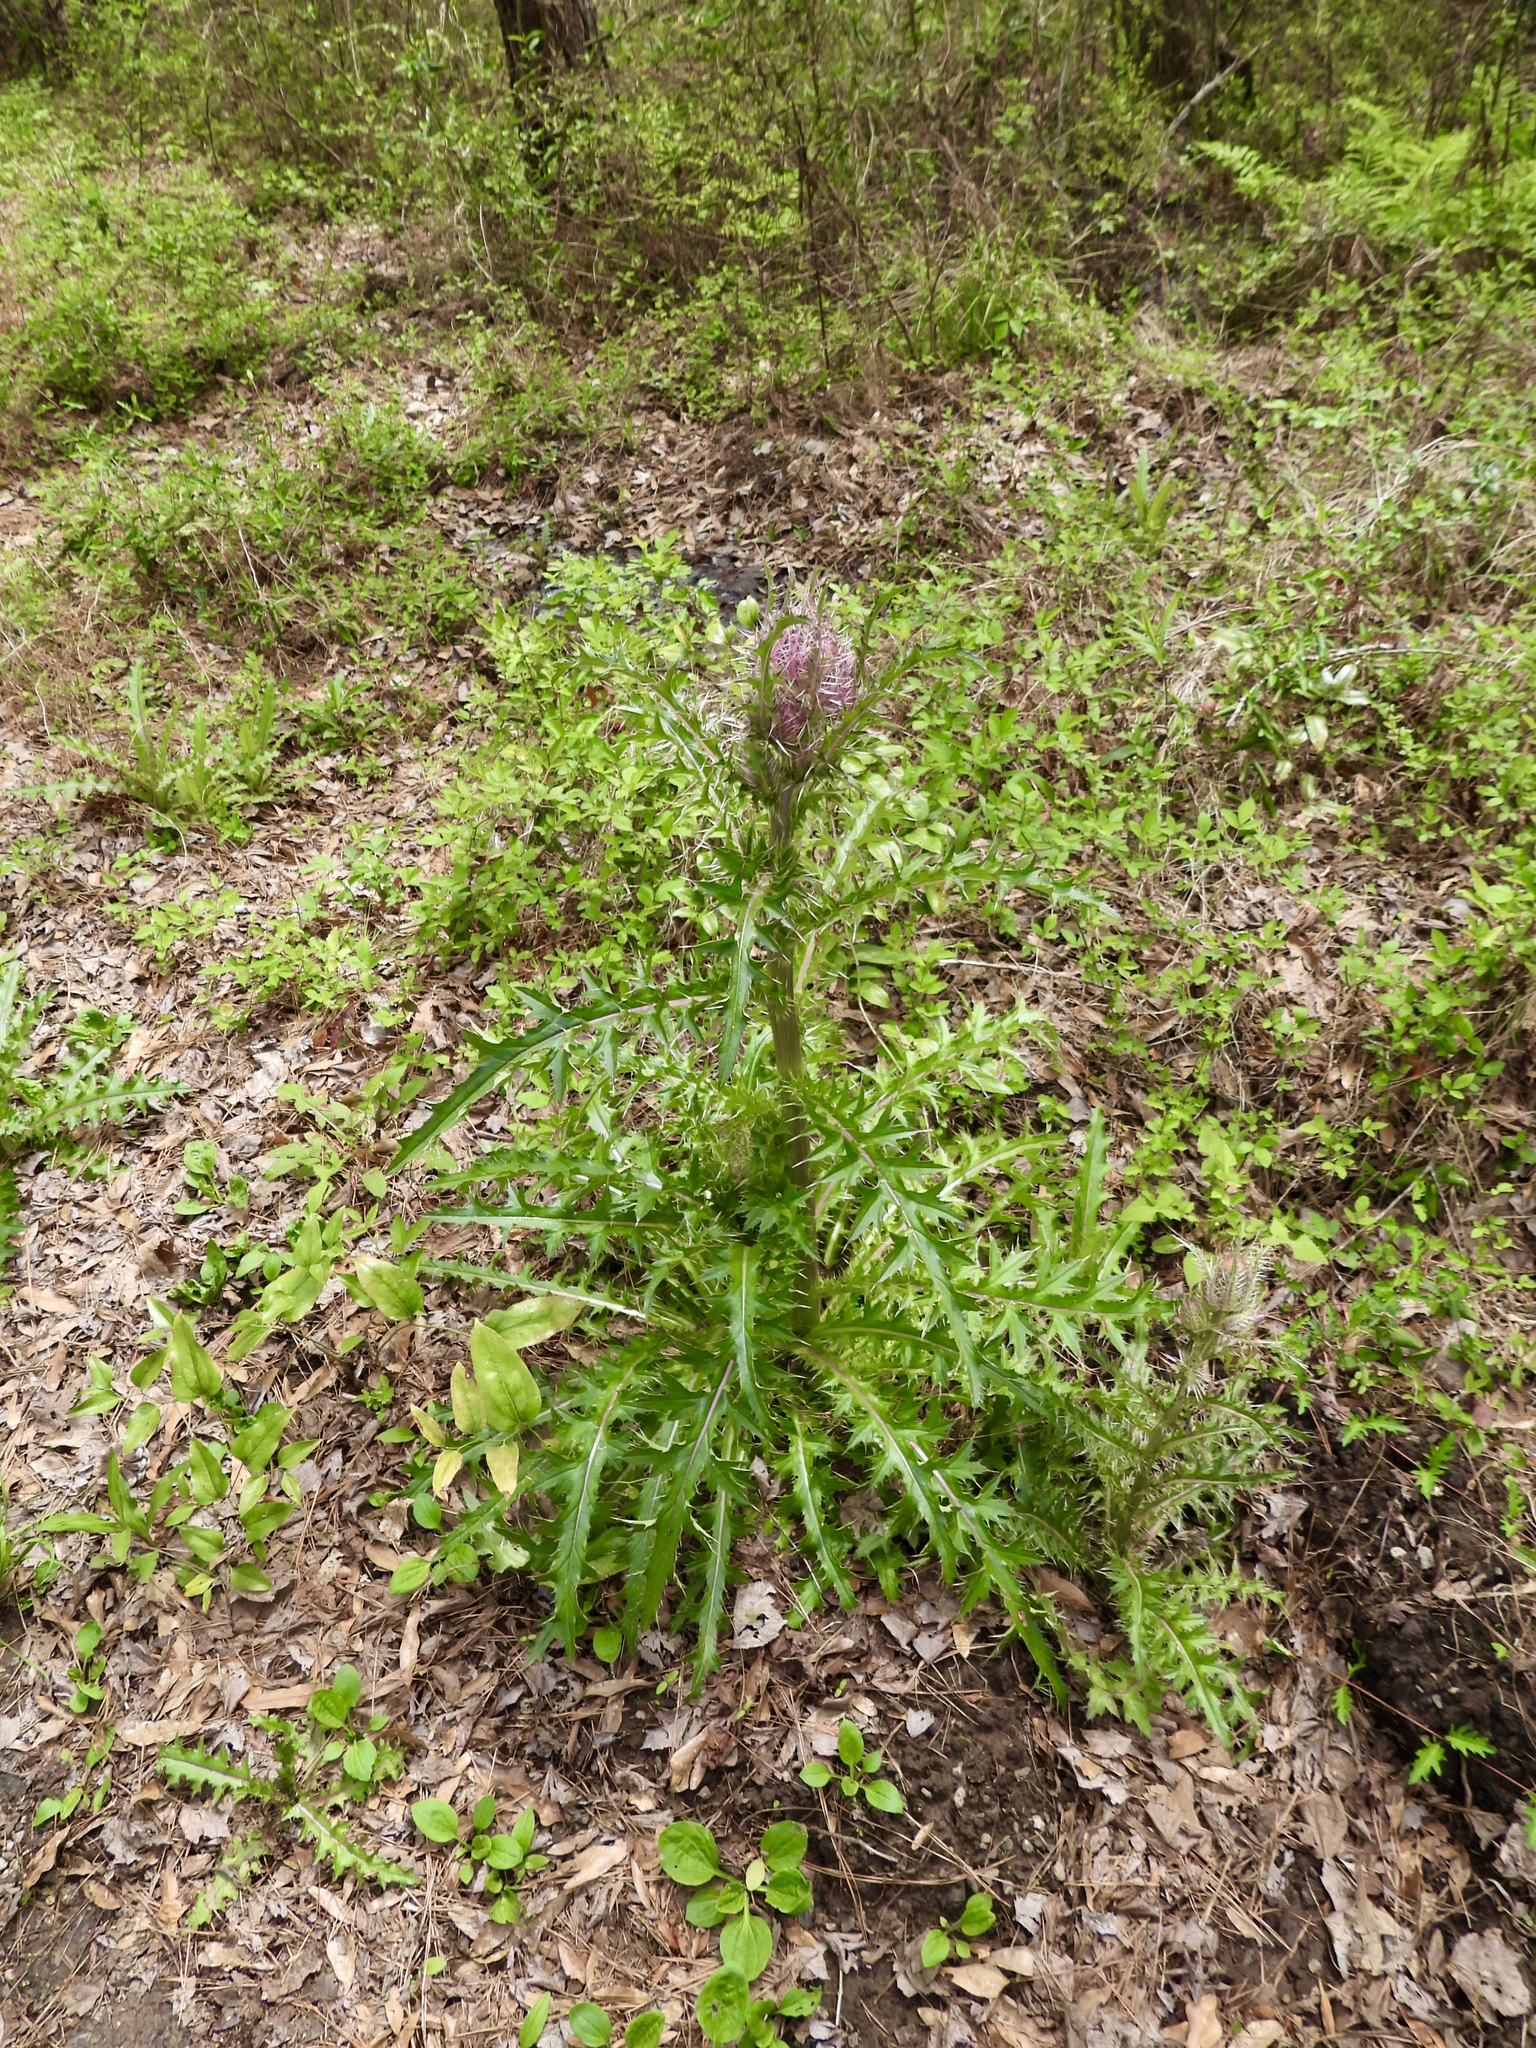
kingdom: Plantae
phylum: Tracheophyta
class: Magnoliopsida
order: Asterales
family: Asteraceae
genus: Cirsium
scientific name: Cirsium horridulum
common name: Bristly thistle
